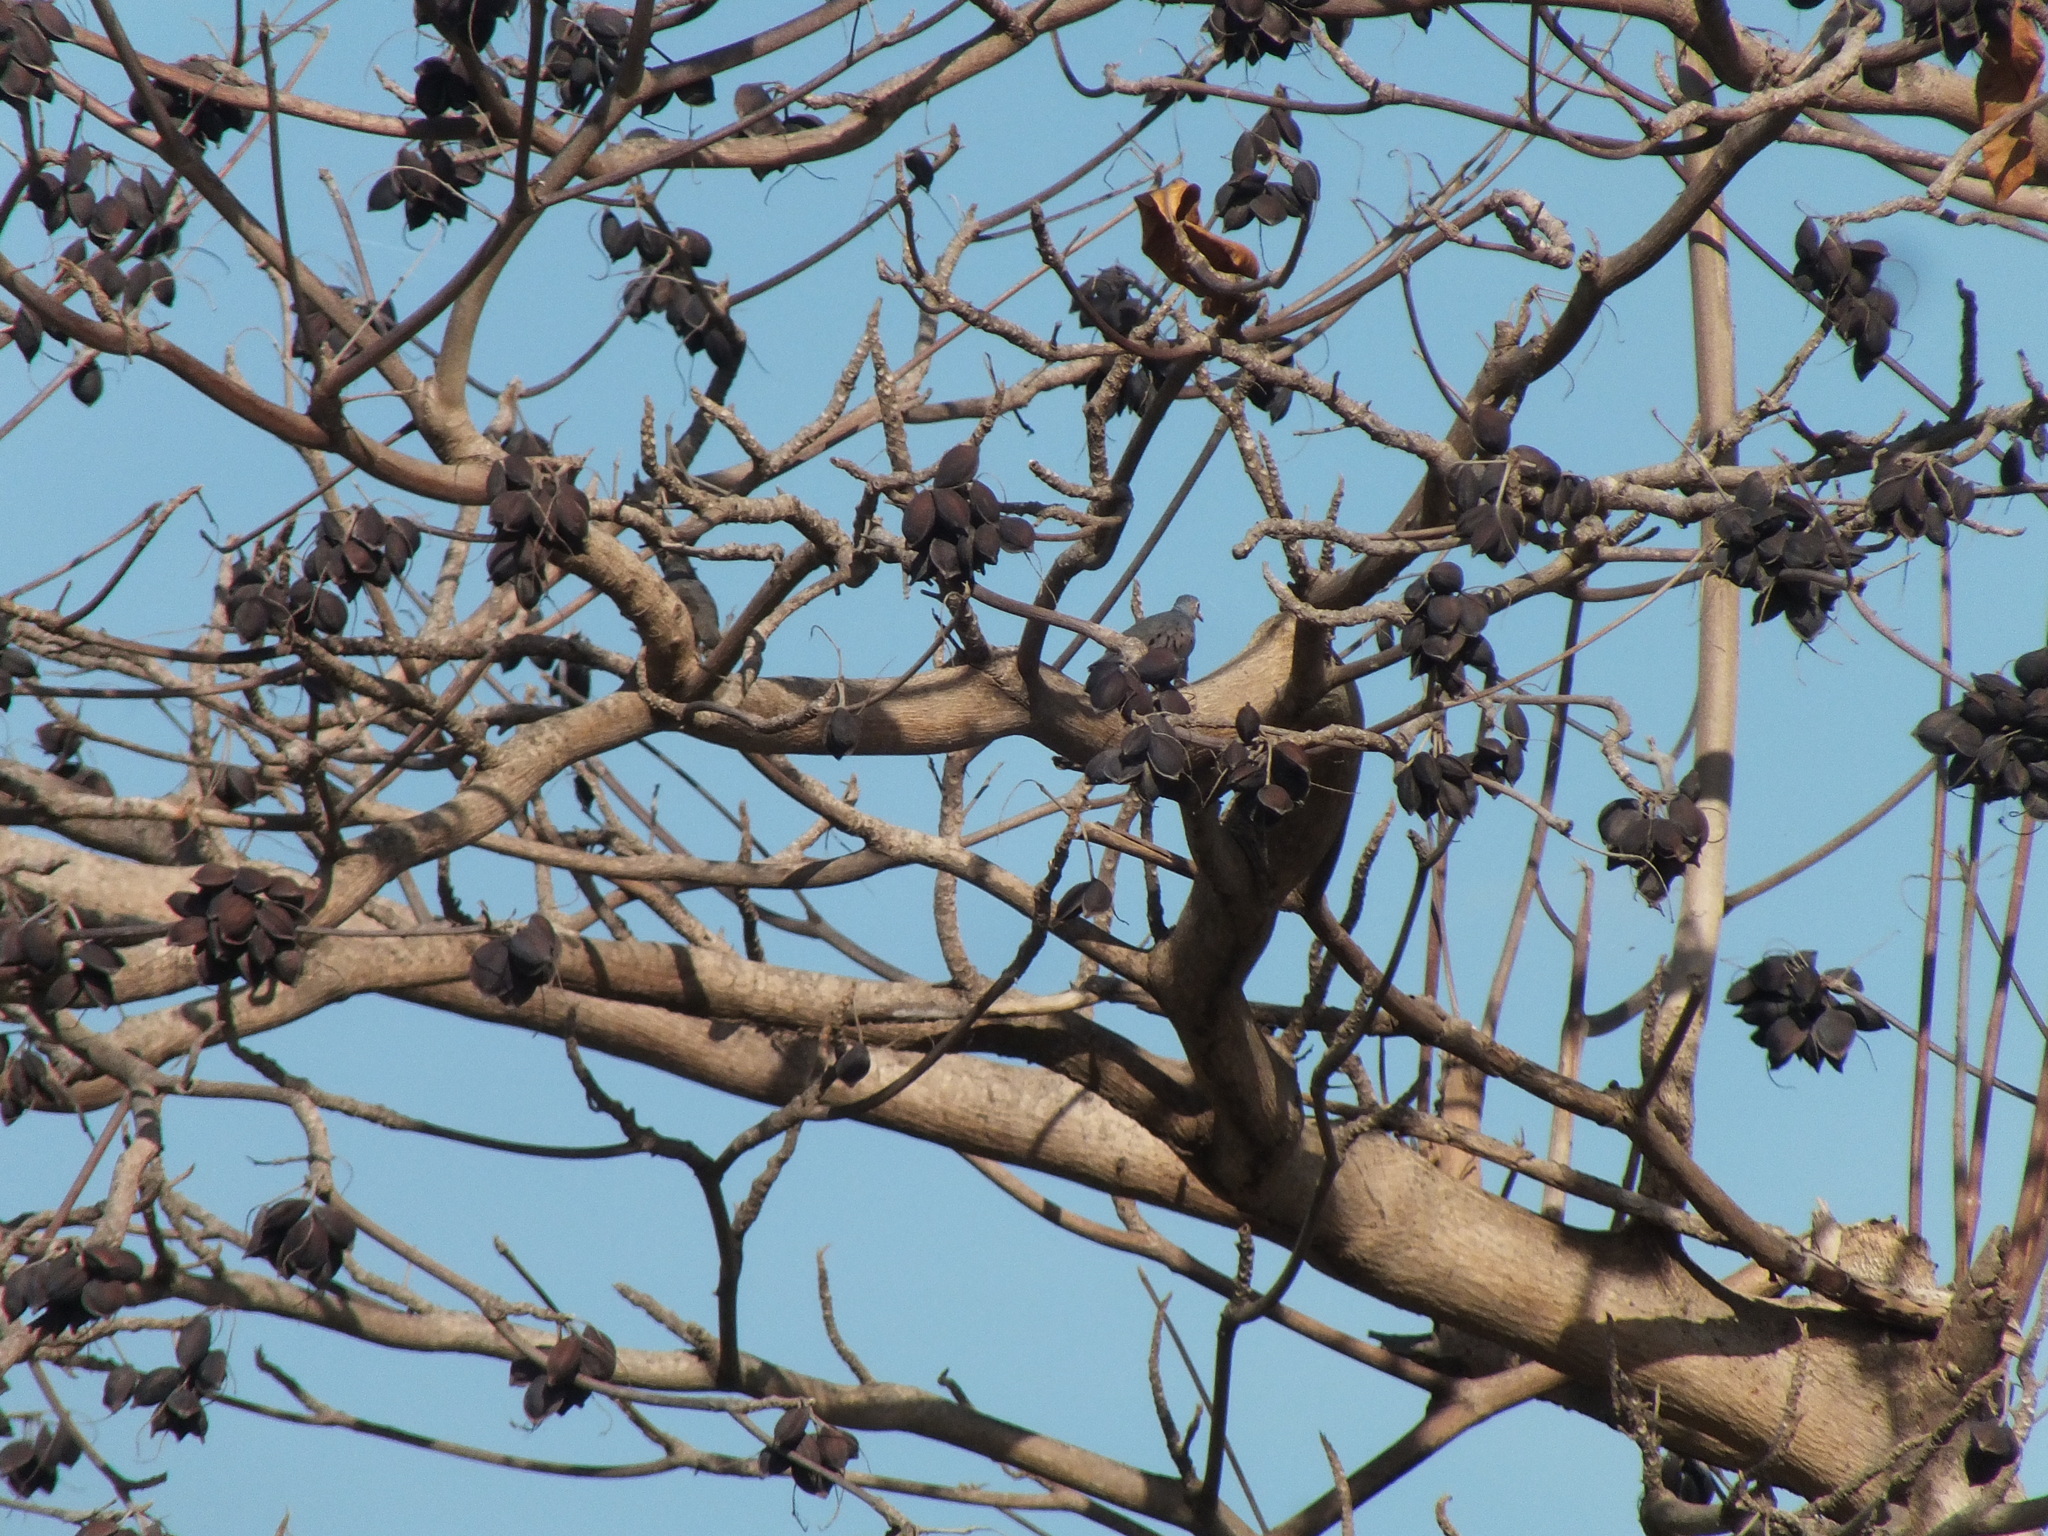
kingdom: Animalia
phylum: Chordata
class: Aves
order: Columbiformes
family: Columbidae
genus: Columbina
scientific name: Columbina passerina
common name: Common ground-dove
